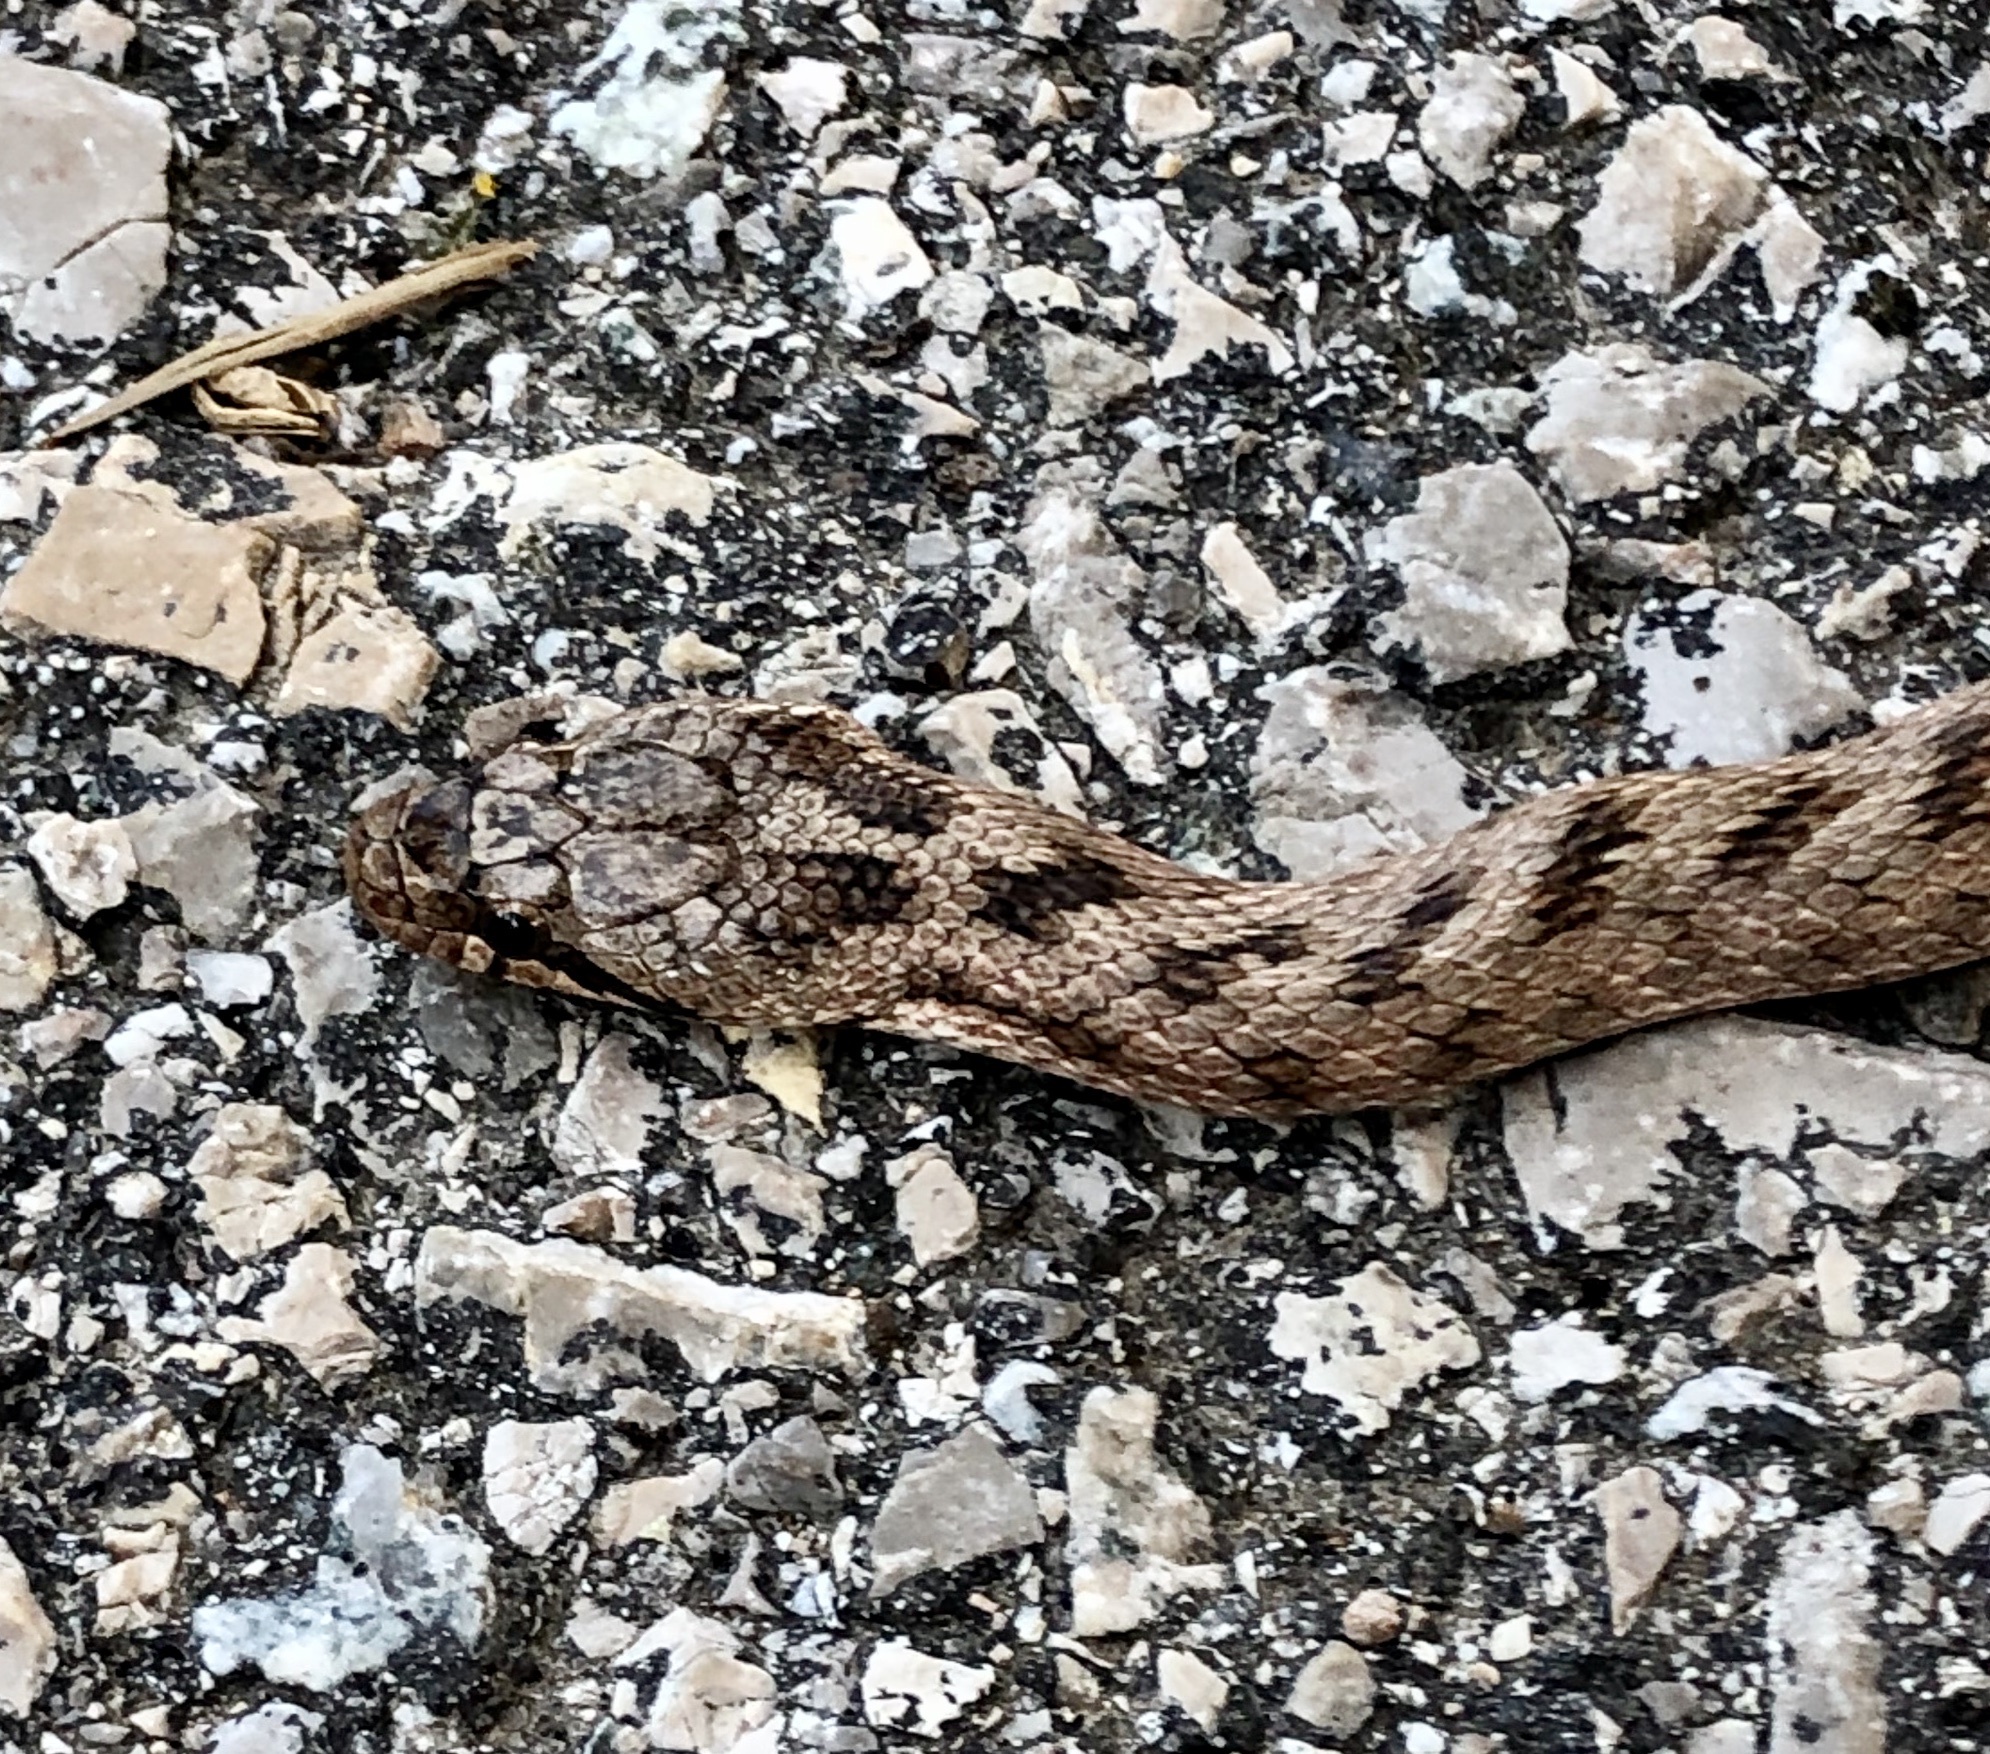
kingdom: Animalia
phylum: Chordata
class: Squamata
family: Colubridae
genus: Coronella
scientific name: Coronella girondica
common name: Southern smooth snake
